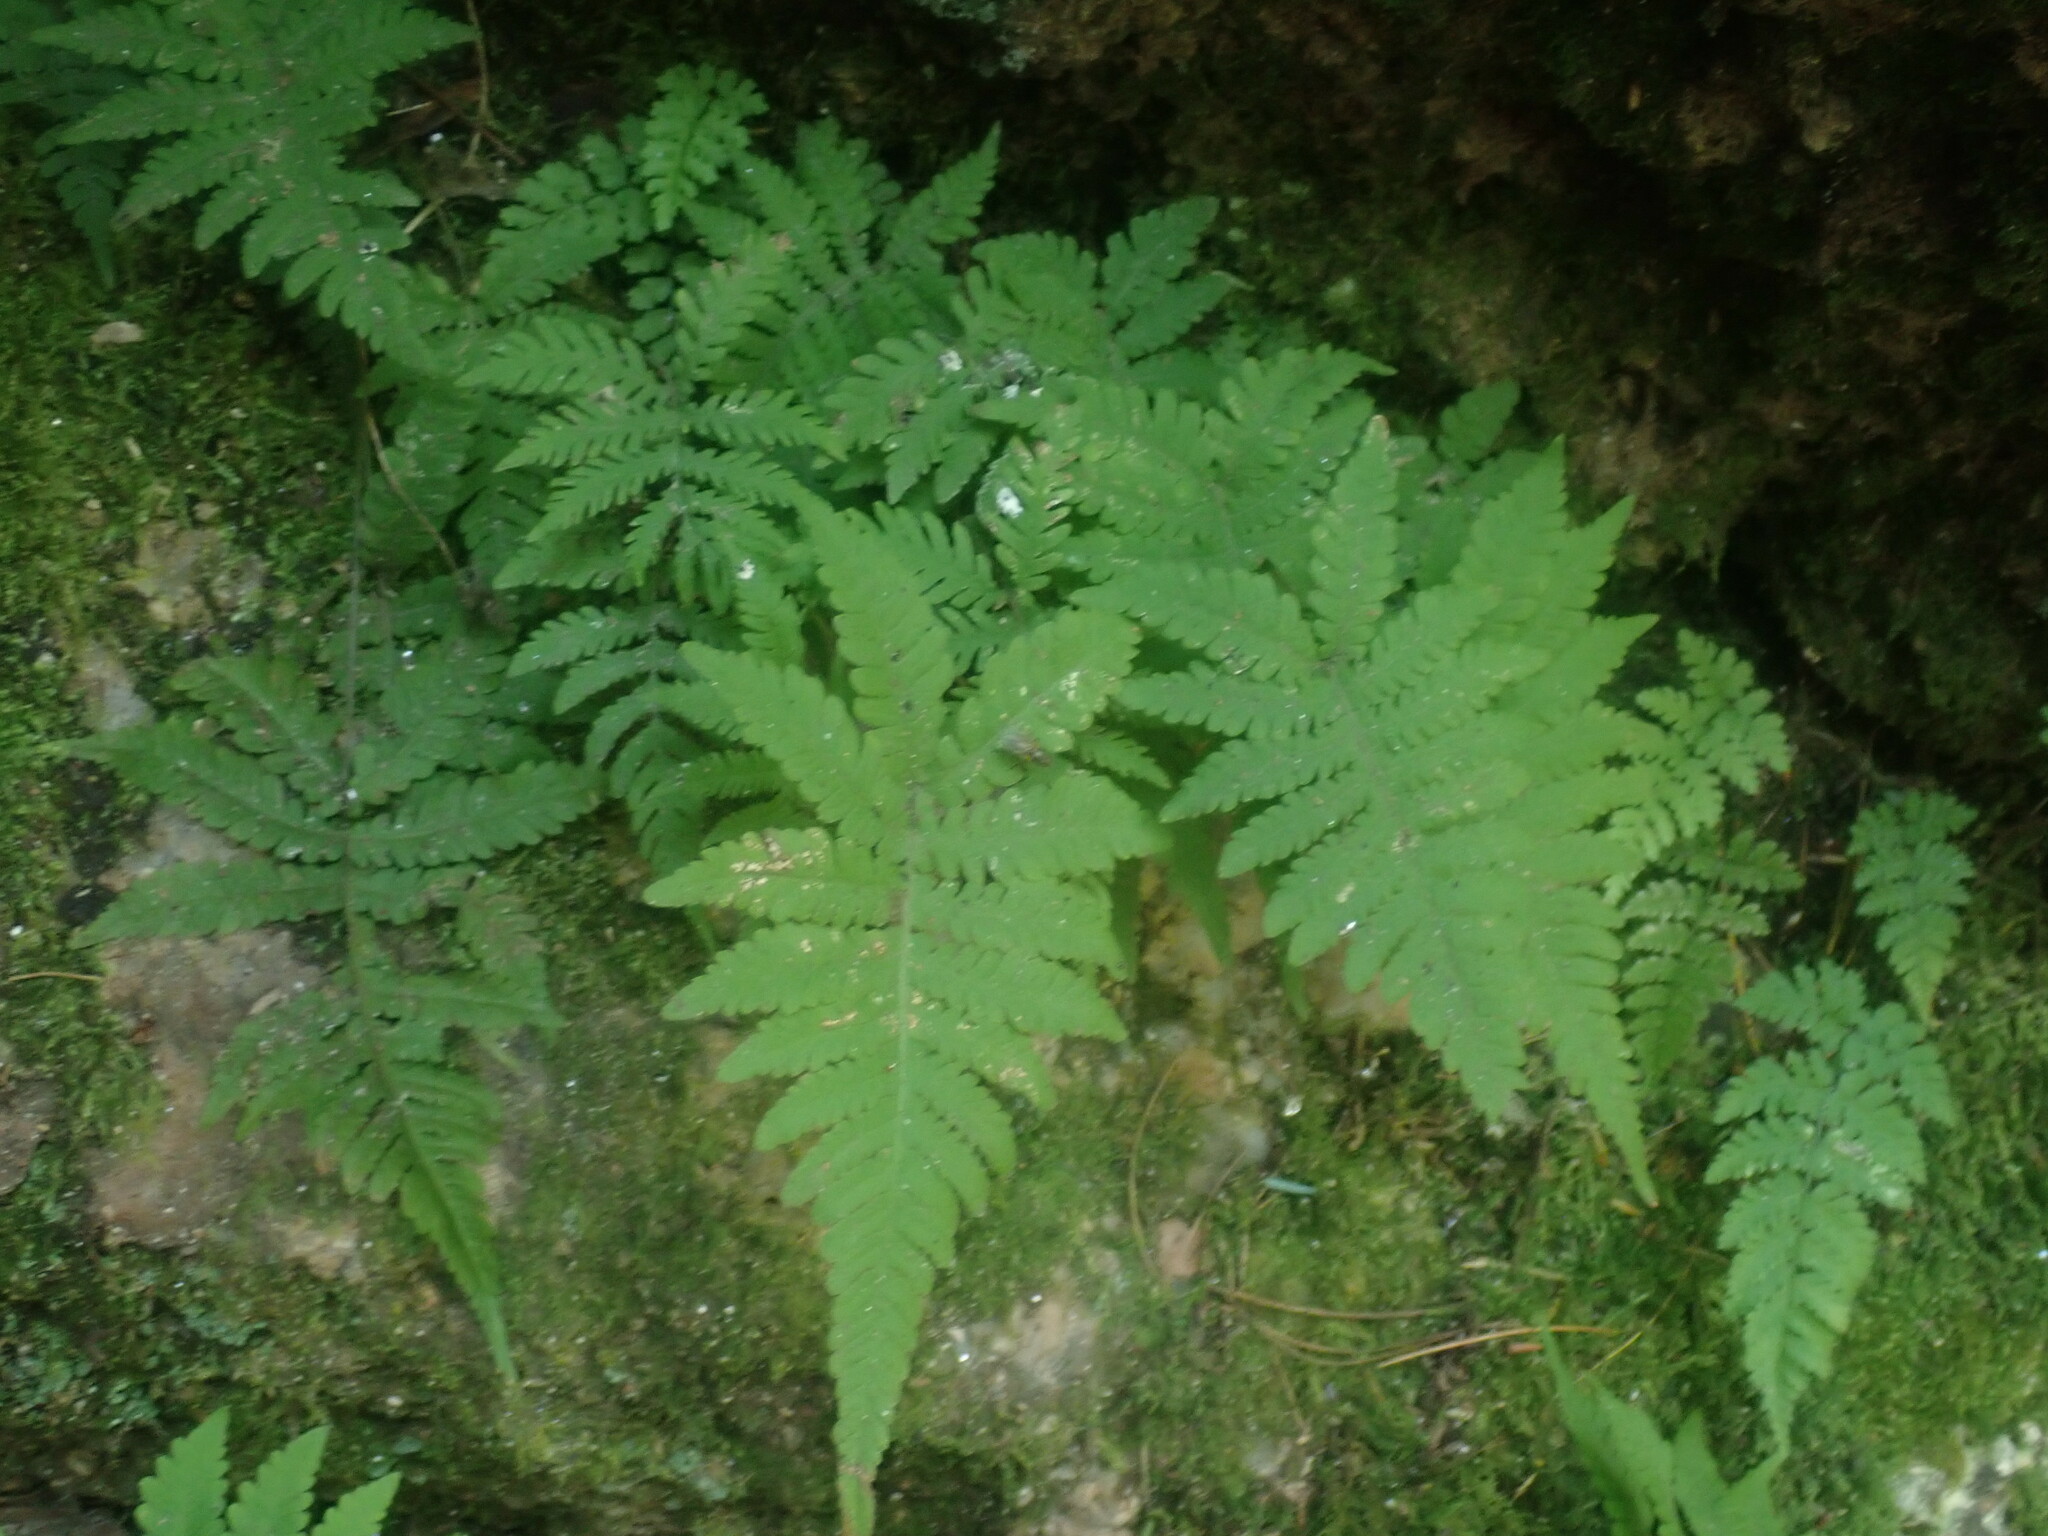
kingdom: Plantae
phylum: Tracheophyta
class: Polypodiopsida
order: Polypodiales
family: Thelypteridaceae
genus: Phegopteris
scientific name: Phegopteris connectilis
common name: Beech fern
